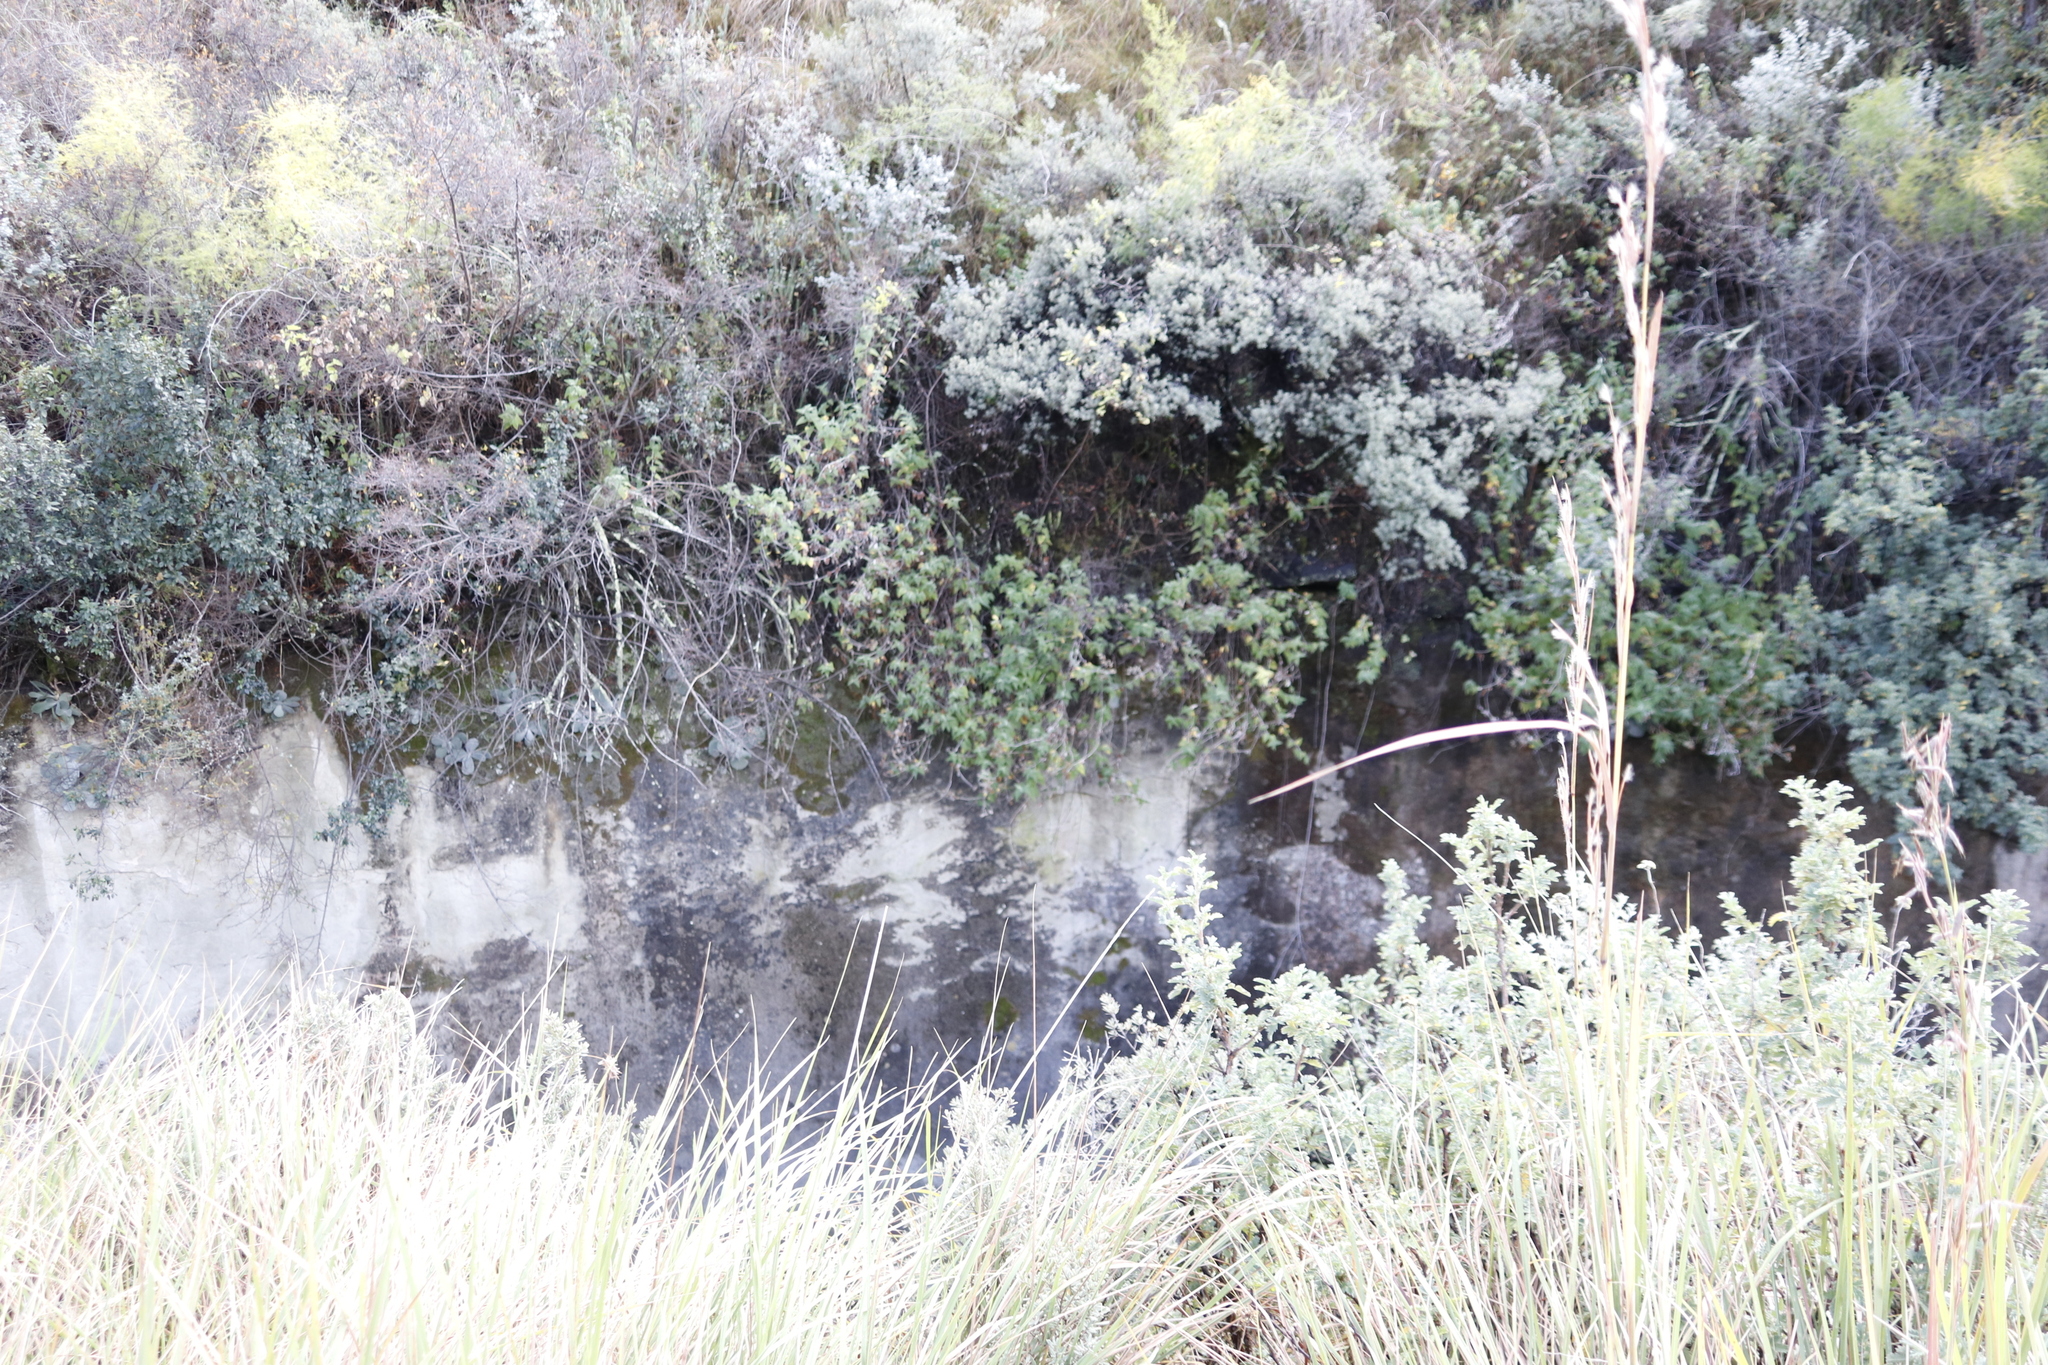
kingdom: Plantae
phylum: Tracheophyta
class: Magnoliopsida
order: Asterales
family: Asteraceae
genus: Helichrysum
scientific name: Helichrysum hypoleucum
